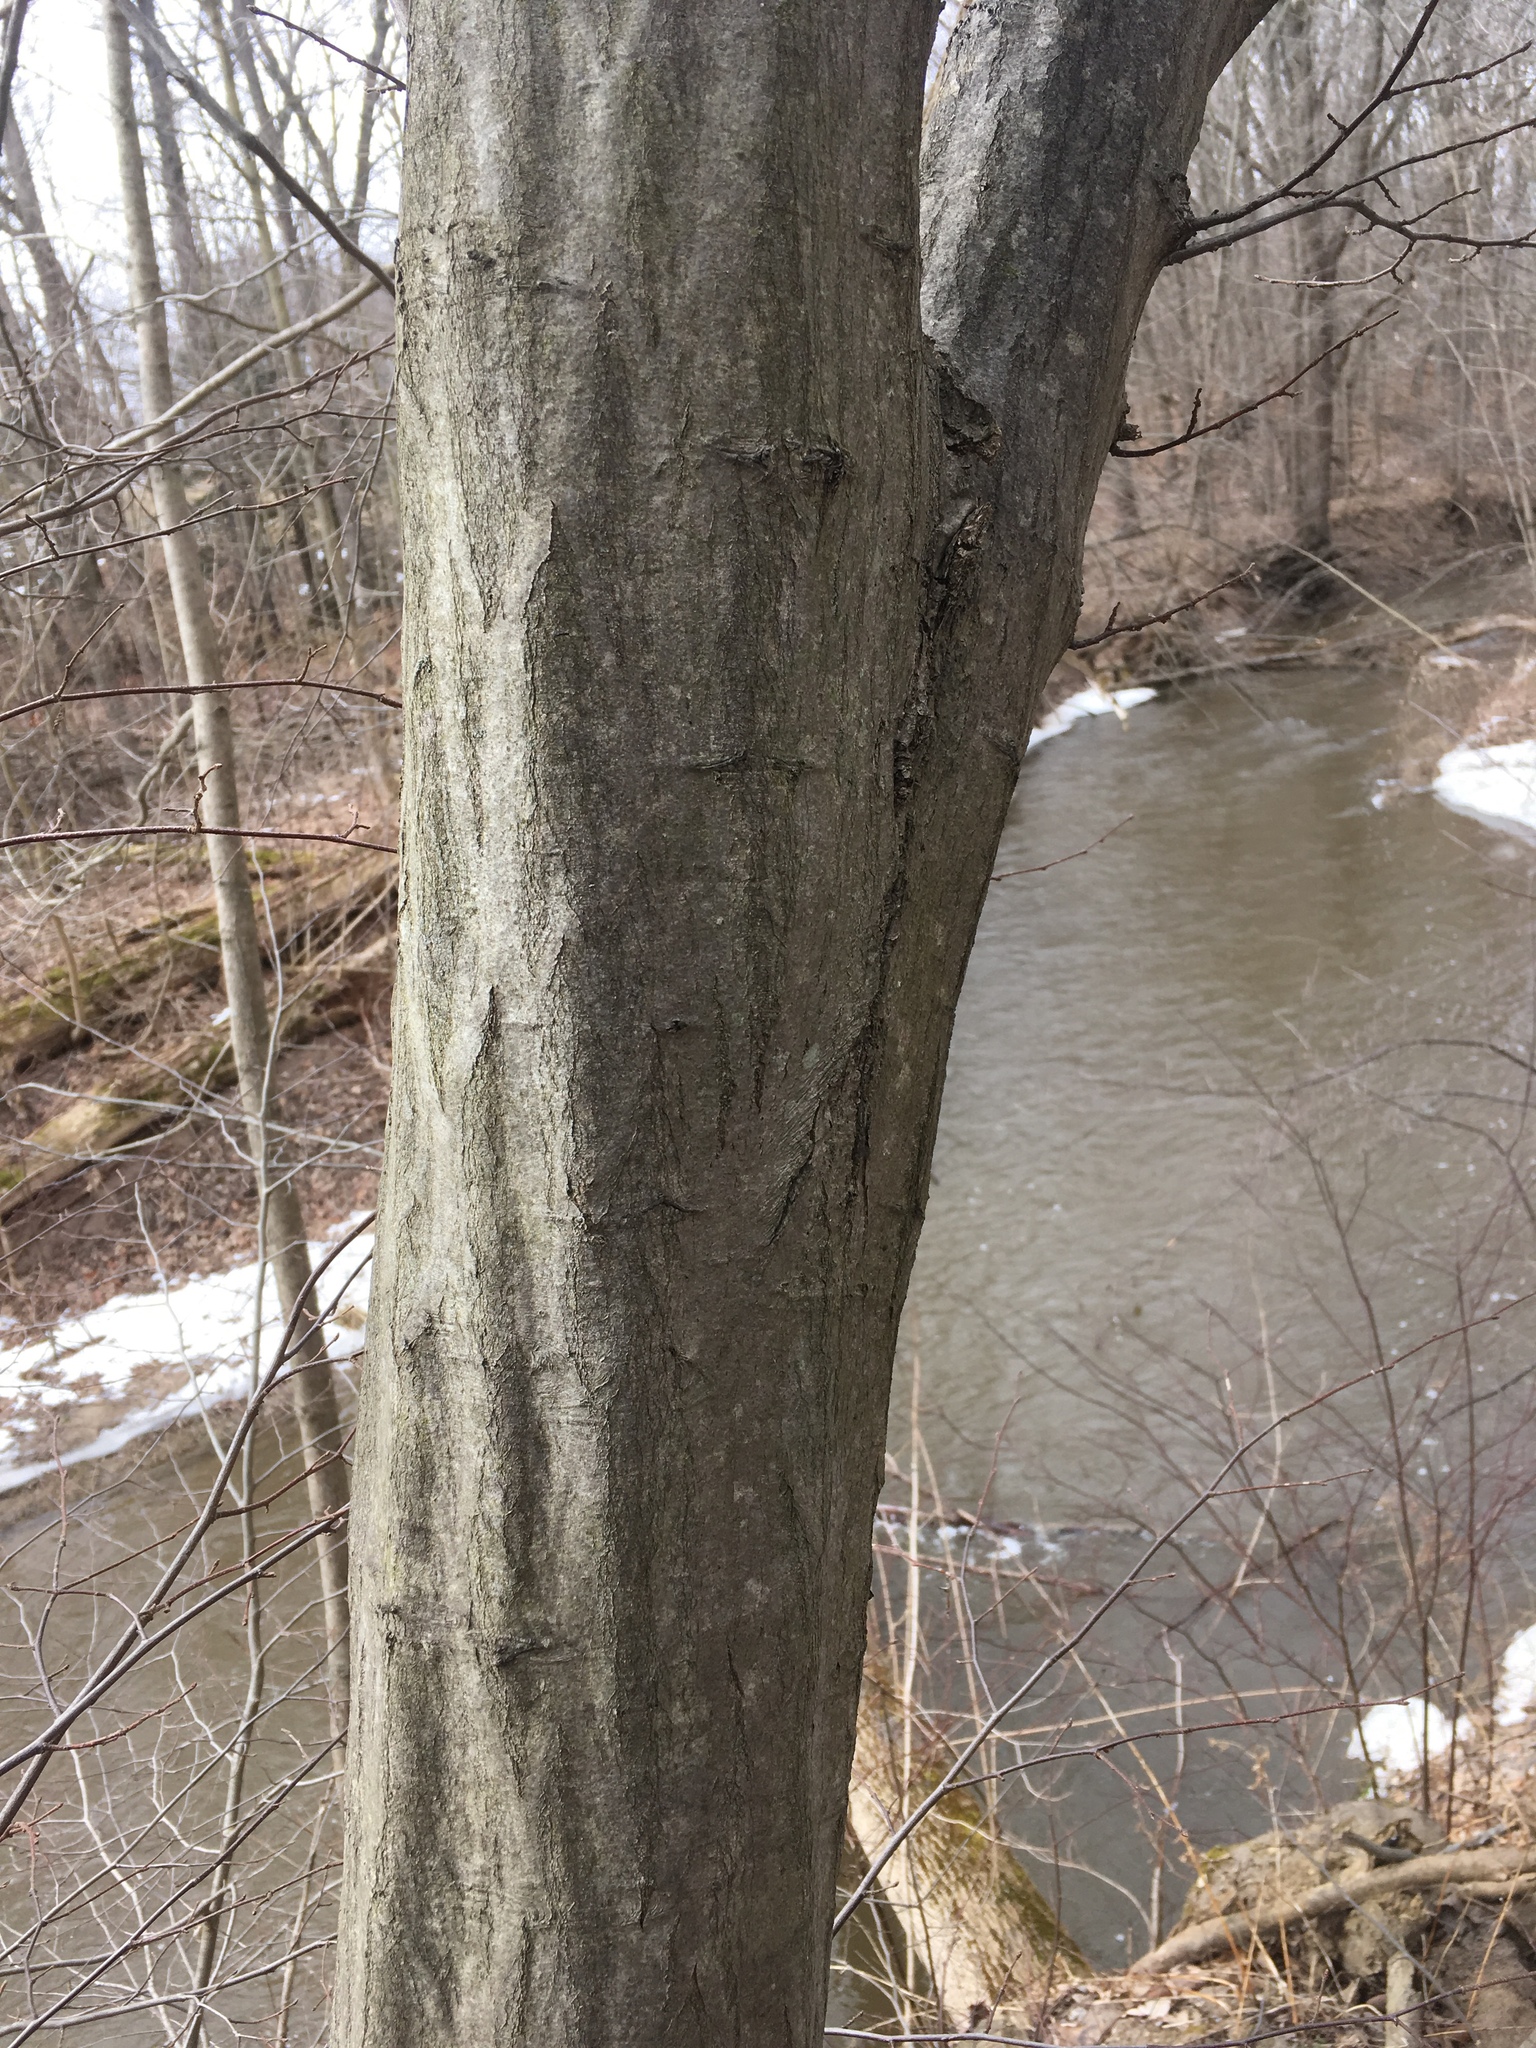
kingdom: Plantae
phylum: Tracheophyta
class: Magnoliopsida
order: Fagales
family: Betulaceae
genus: Carpinus
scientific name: Carpinus caroliniana
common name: American hornbeam
